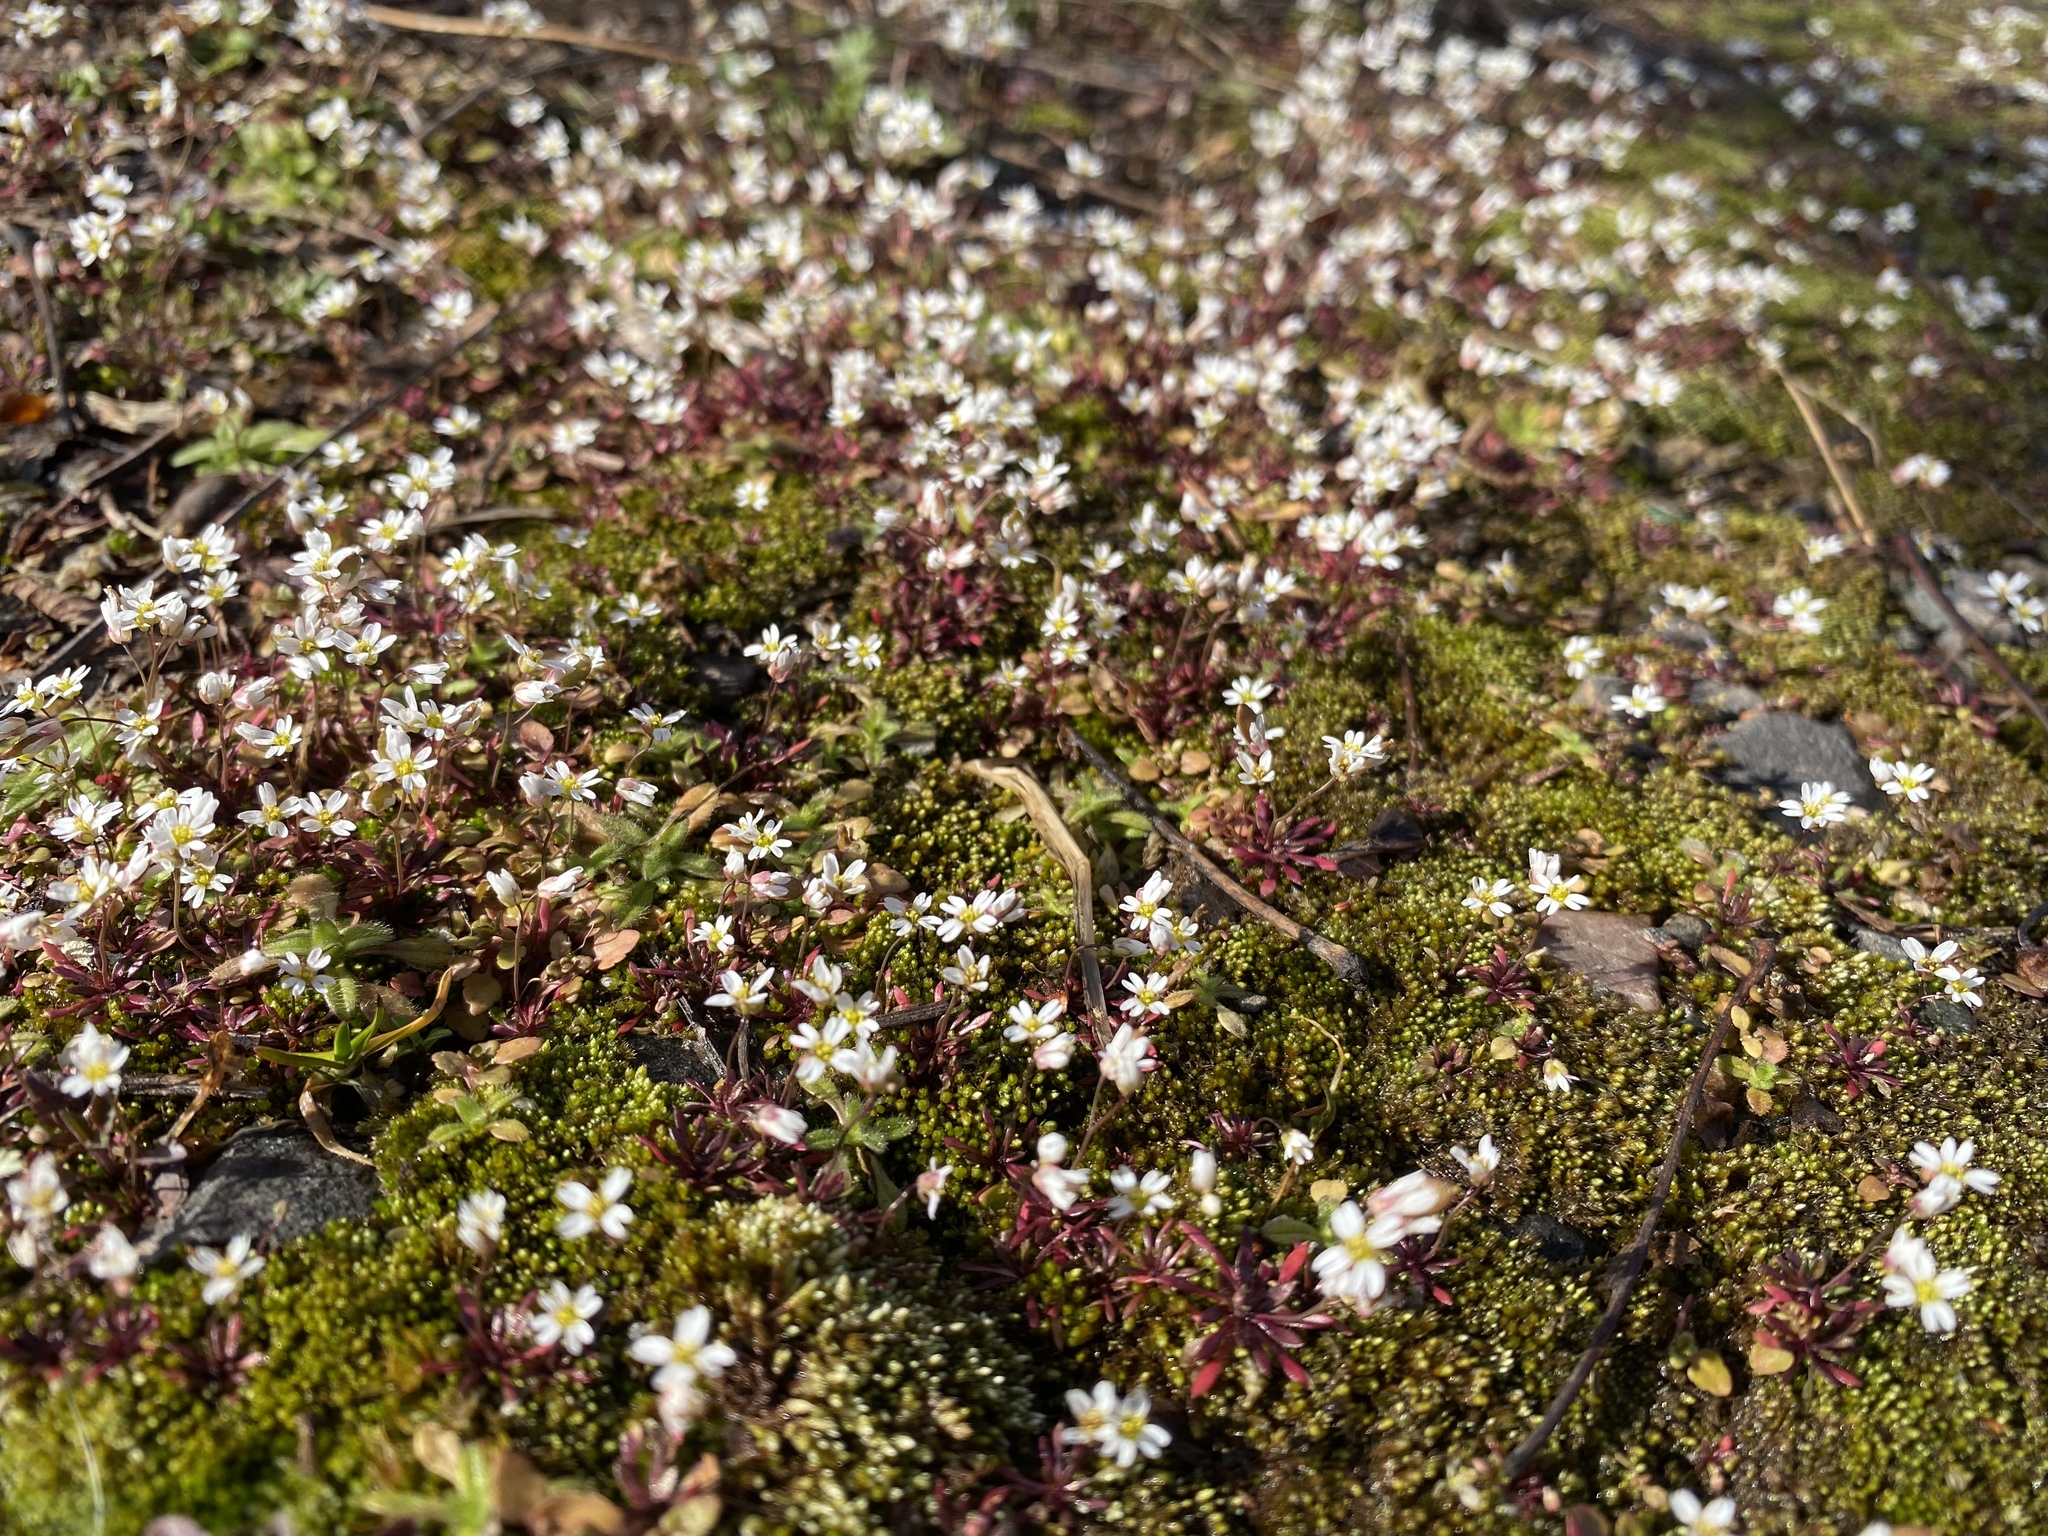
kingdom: Plantae
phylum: Tracheophyta
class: Magnoliopsida
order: Brassicales
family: Brassicaceae
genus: Draba
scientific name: Draba verna
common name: Spring draba
